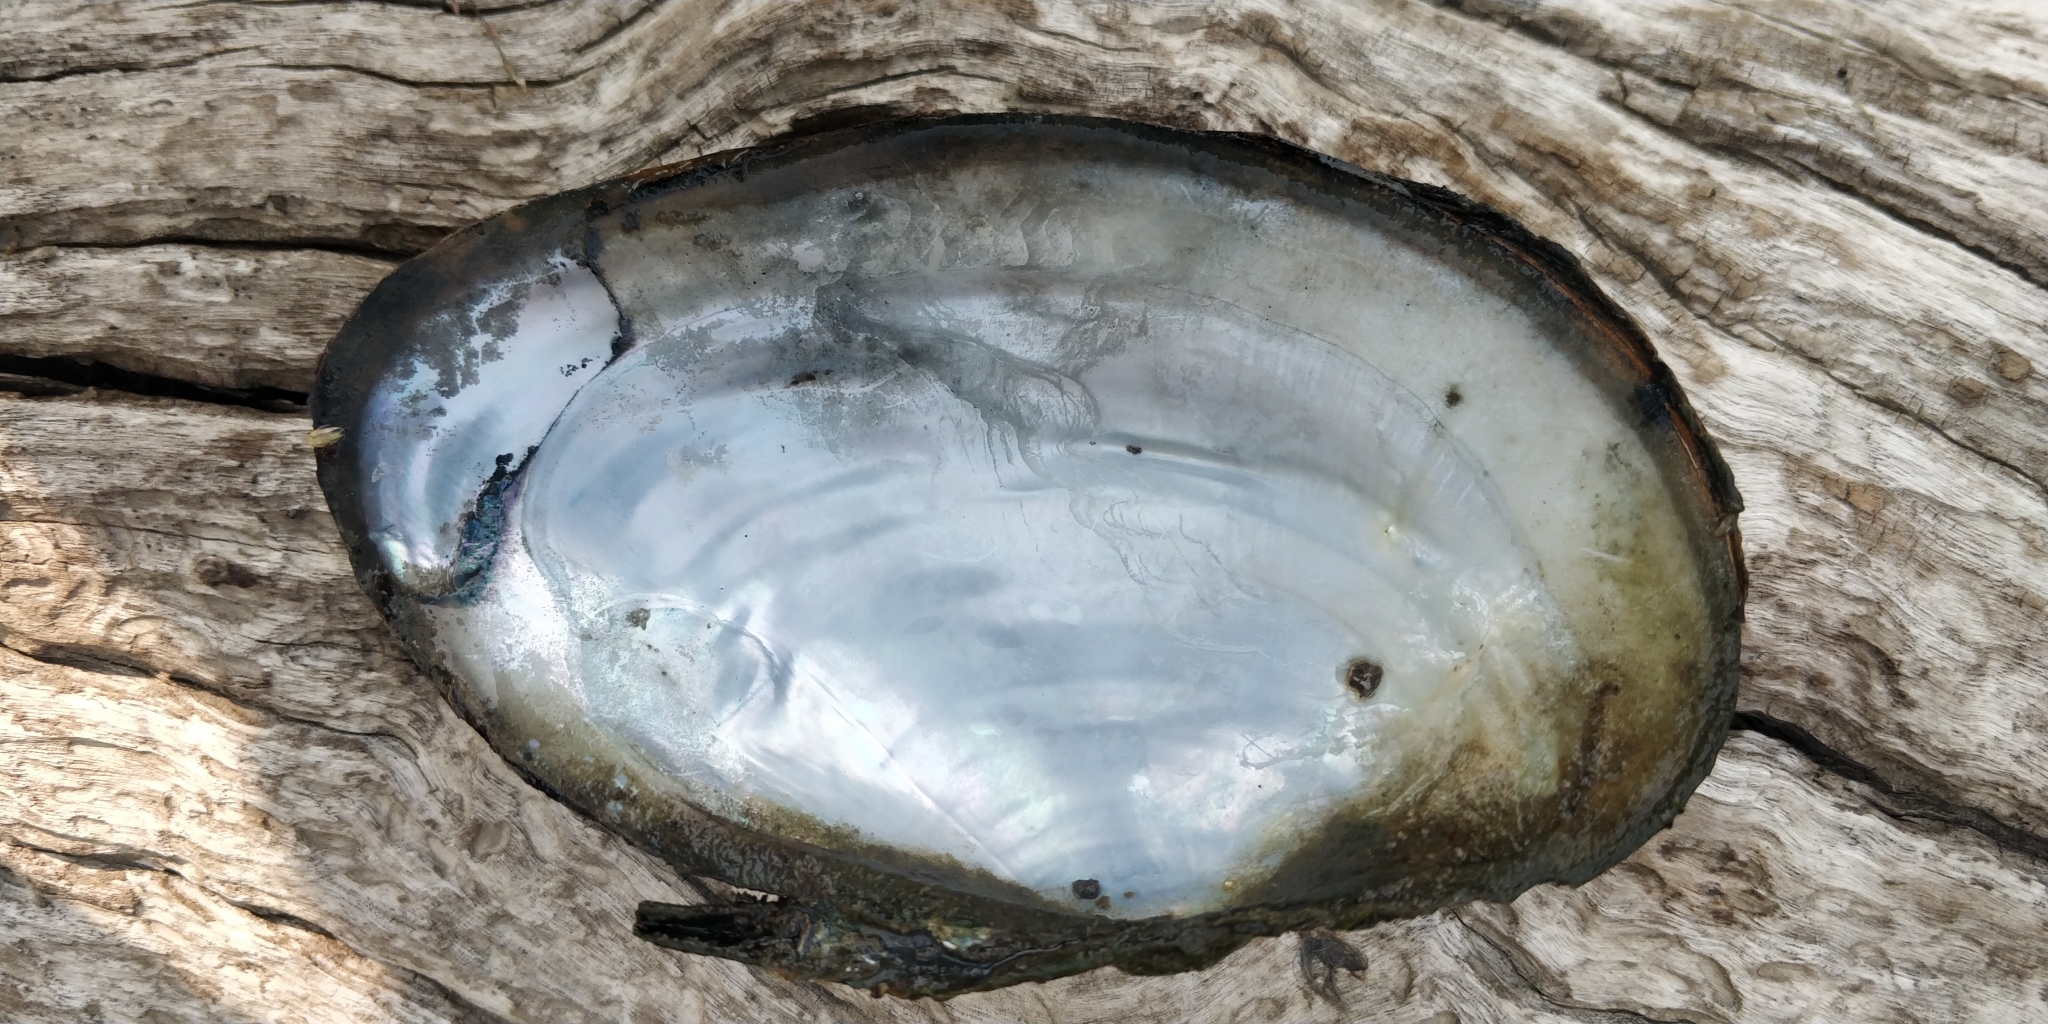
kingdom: Animalia
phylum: Mollusca
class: Bivalvia
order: Unionida
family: Unionidae
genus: Pyganodon
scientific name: Pyganodon grandis
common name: Giant floater
